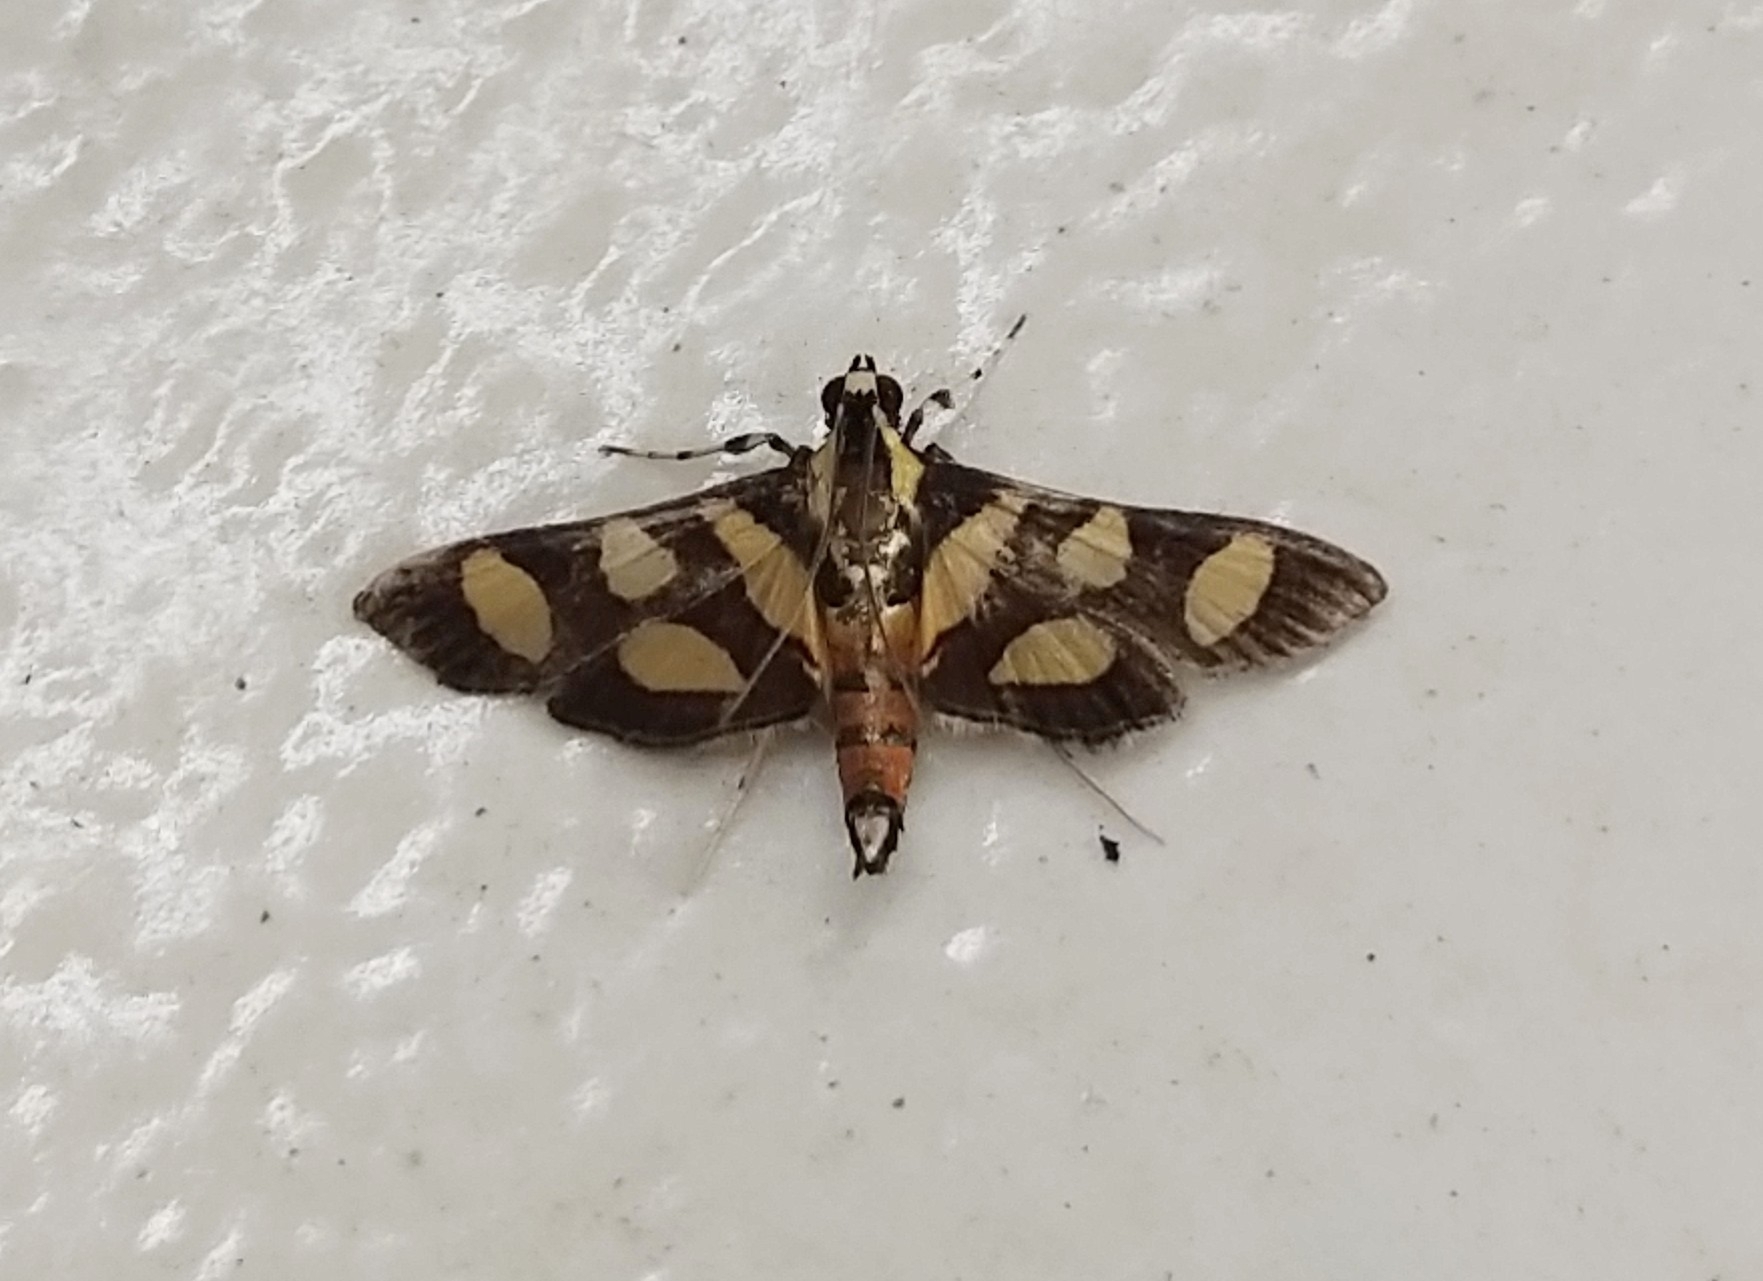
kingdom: Animalia
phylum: Arthropoda
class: Insecta
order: Lepidoptera
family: Crambidae
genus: Syngamia
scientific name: Syngamia florella
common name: Orange-spotted flower moth
